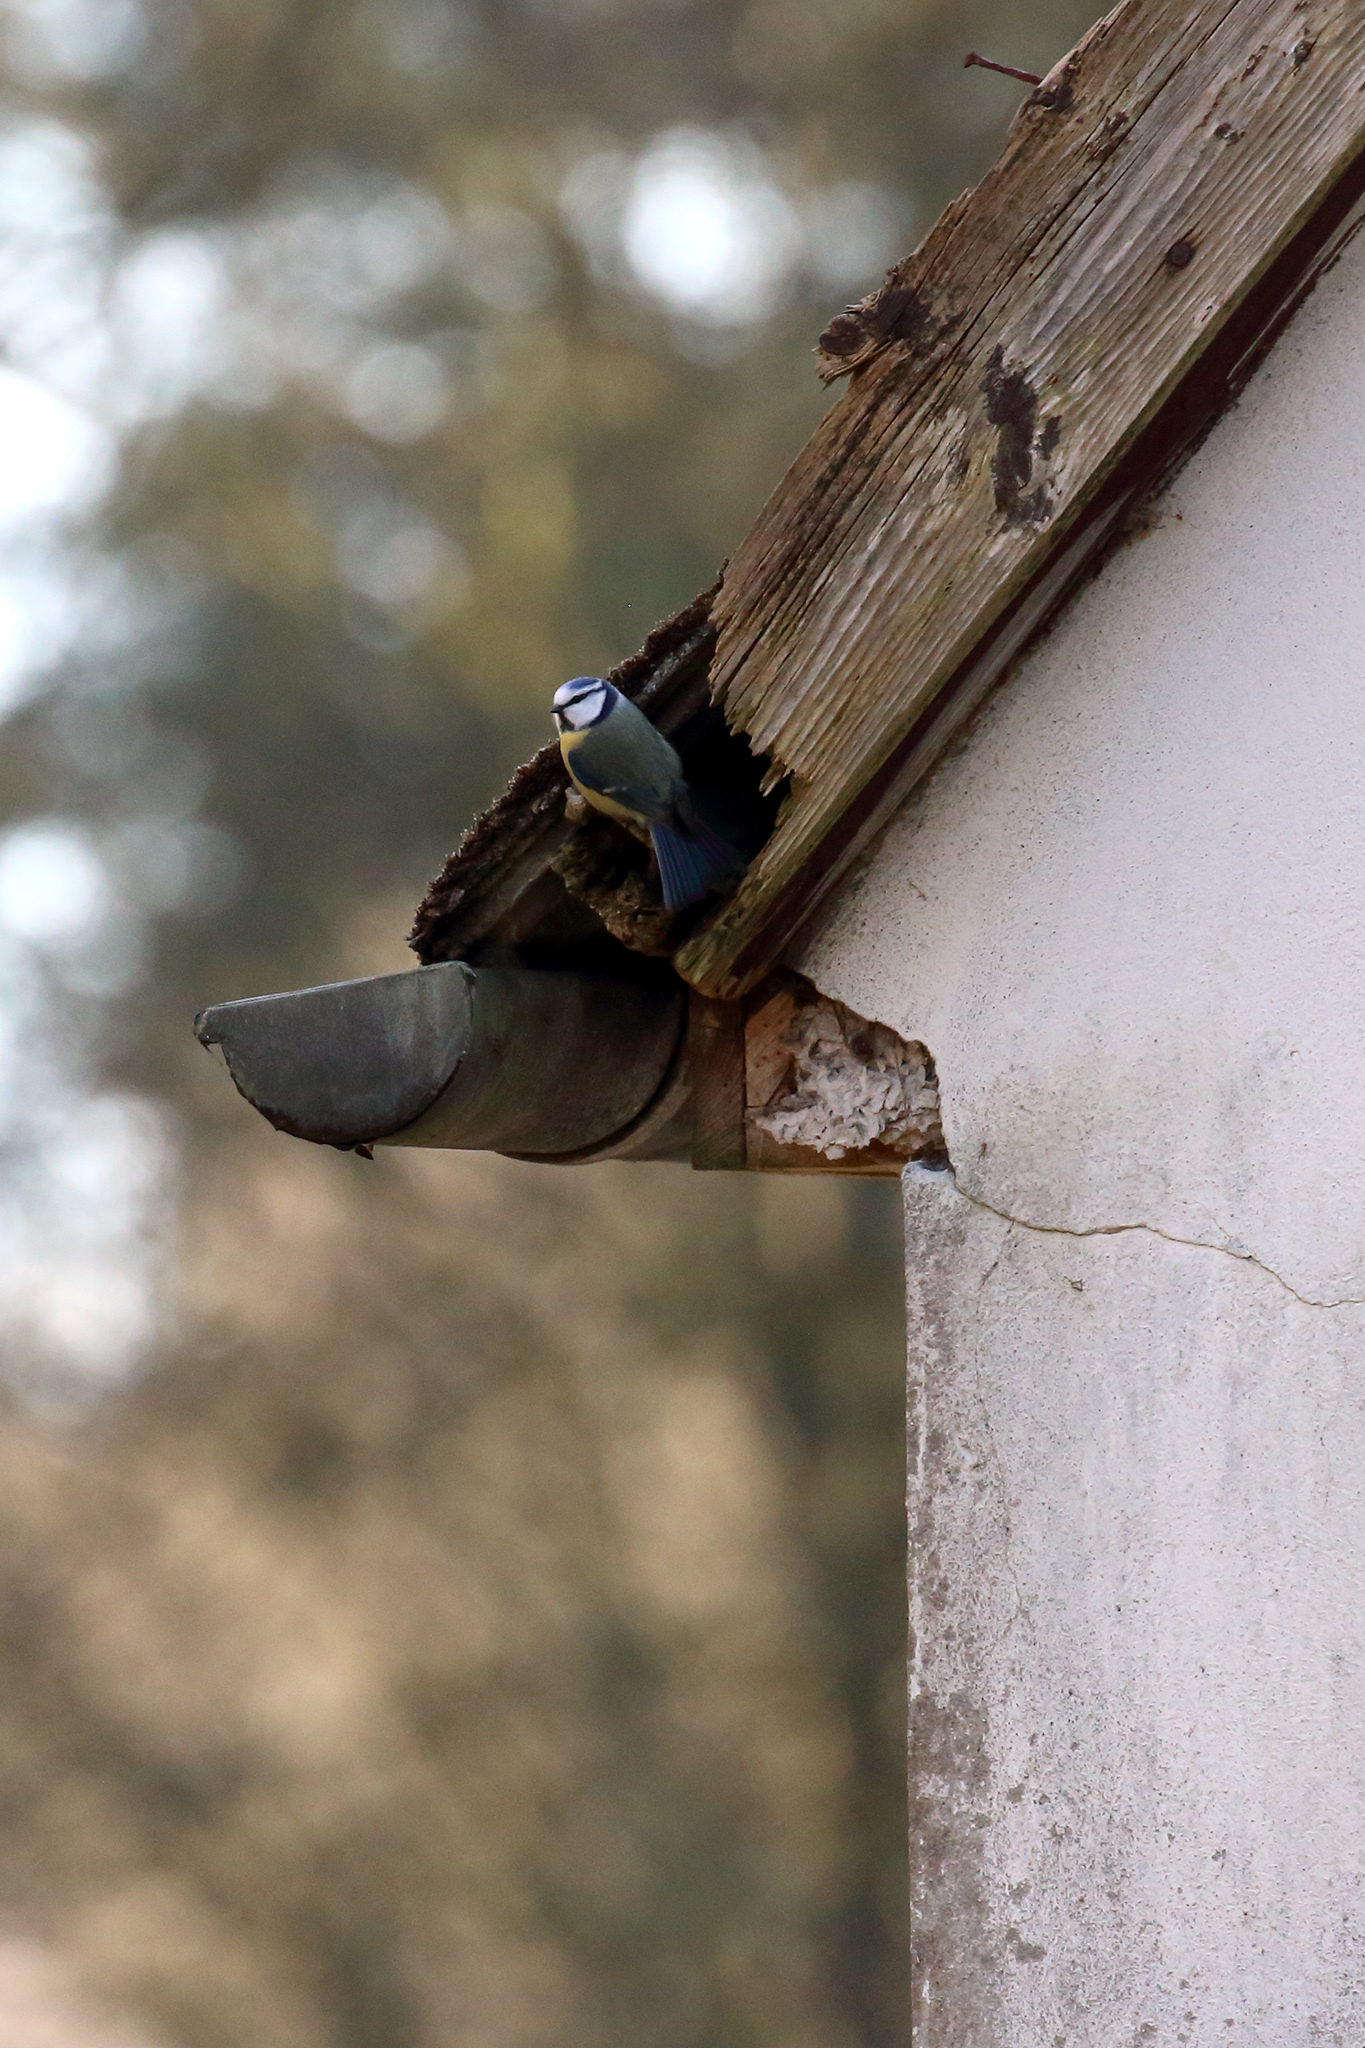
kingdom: Animalia
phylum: Chordata
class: Aves
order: Passeriformes
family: Paridae
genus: Cyanistes
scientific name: Cyanistes caeruleus
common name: Eurasian blue tit
